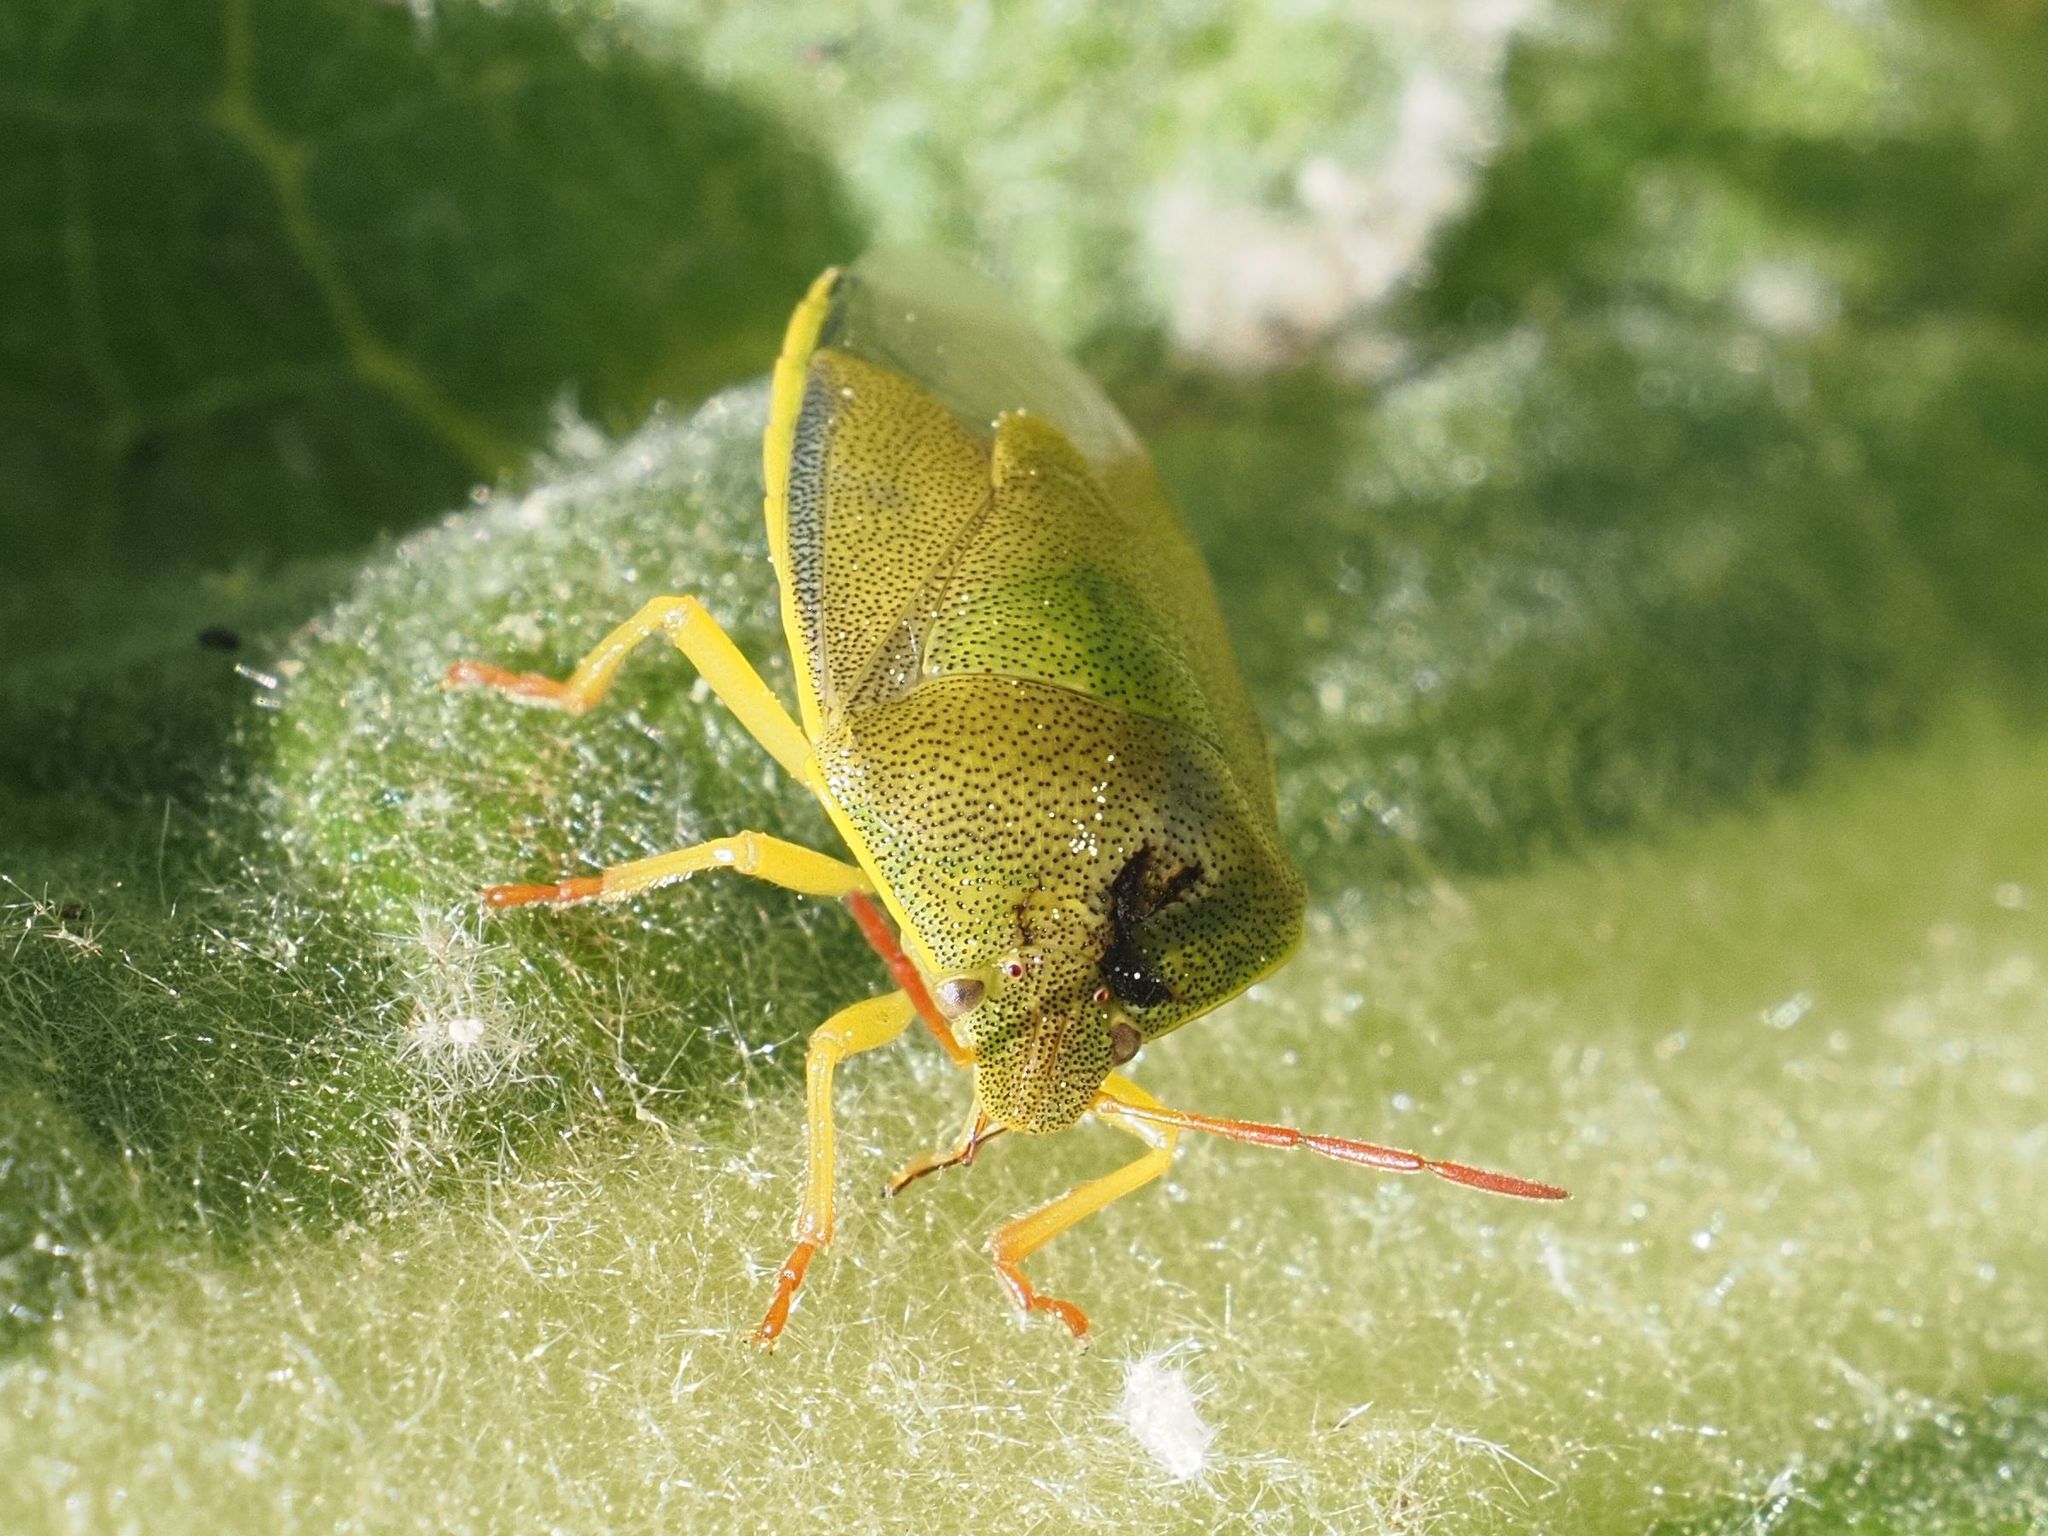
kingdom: Animalia
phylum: Arthropoda
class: Insecta
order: Hemiptera
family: Pentatomidae
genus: Piezodorus
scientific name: Piezodorus lituratus
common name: Stink bug
